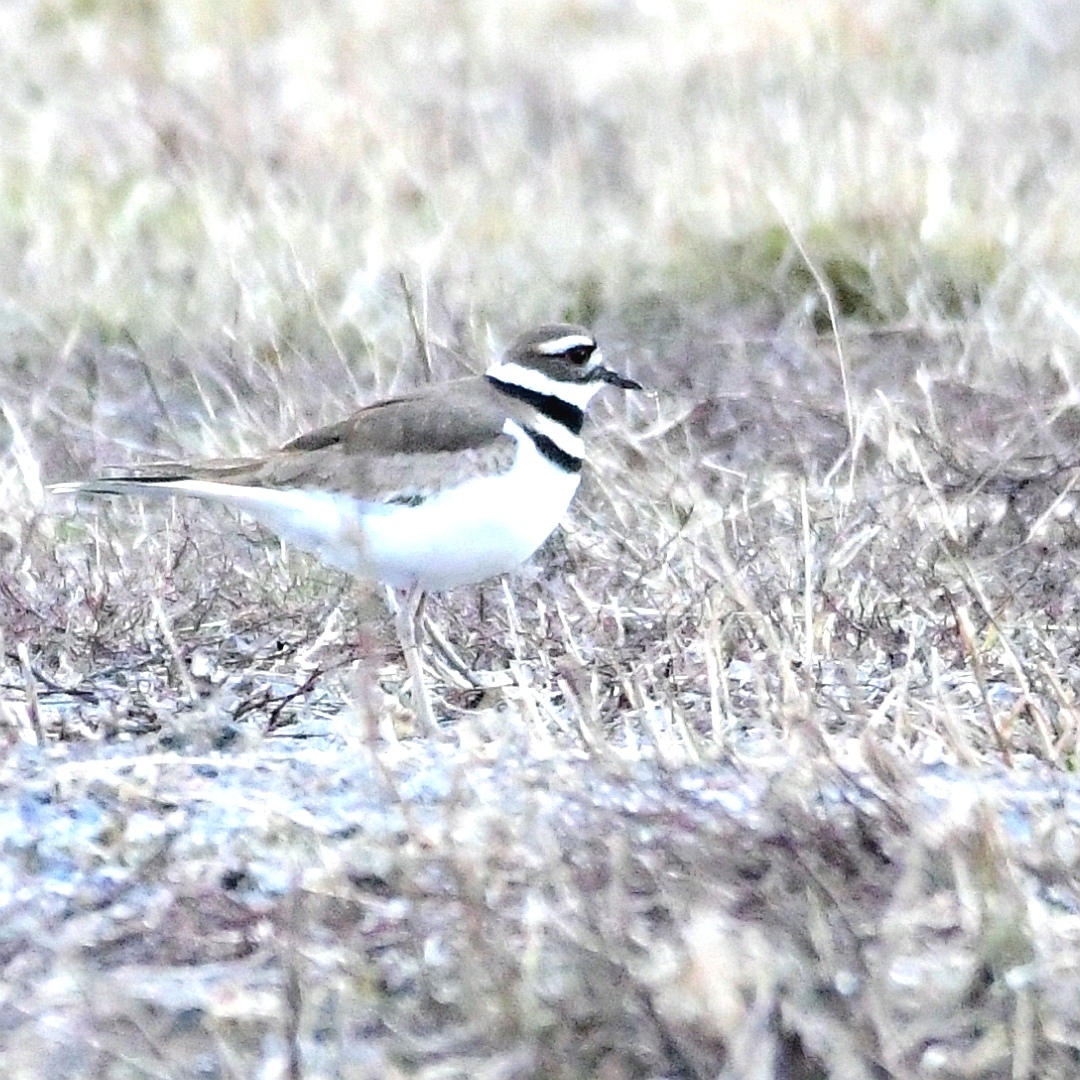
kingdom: Animalia
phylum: Chordata
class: Aves
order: Charadriiformes
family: Charadriidae
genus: Charadrius
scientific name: Charadrius vociferus
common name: Killdeer
